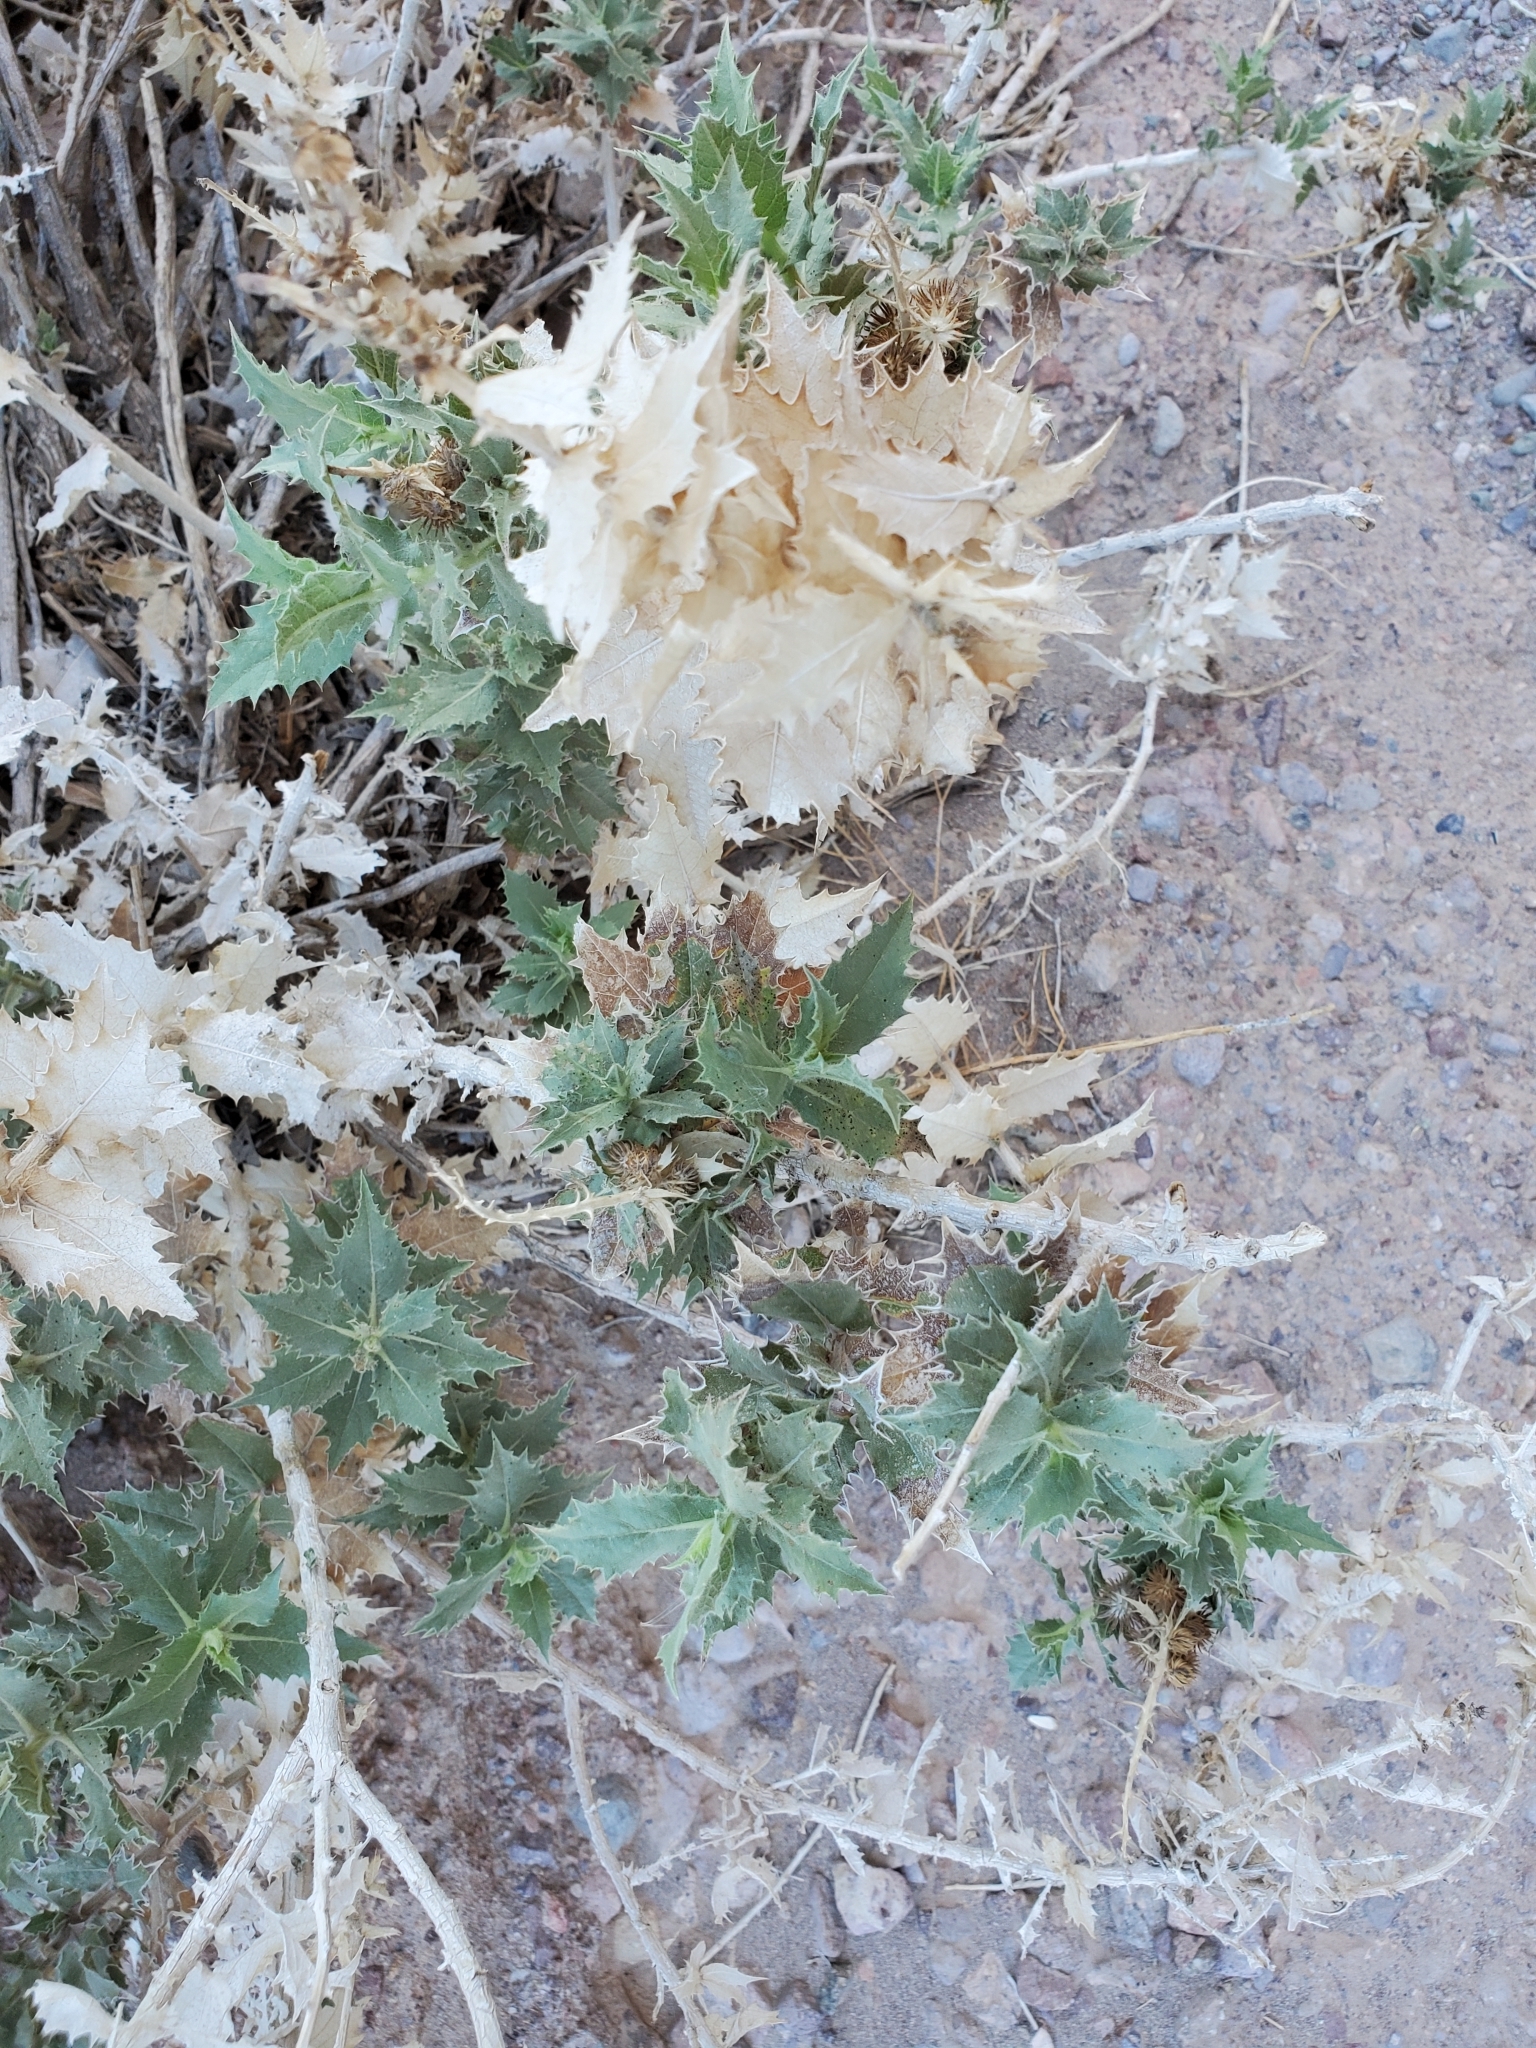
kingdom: Plantae
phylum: Tracheophyta
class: Magnoliopsida
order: Asterales
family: Asteraceae
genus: Ambrosia
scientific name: Ambrosia ilicifolia
